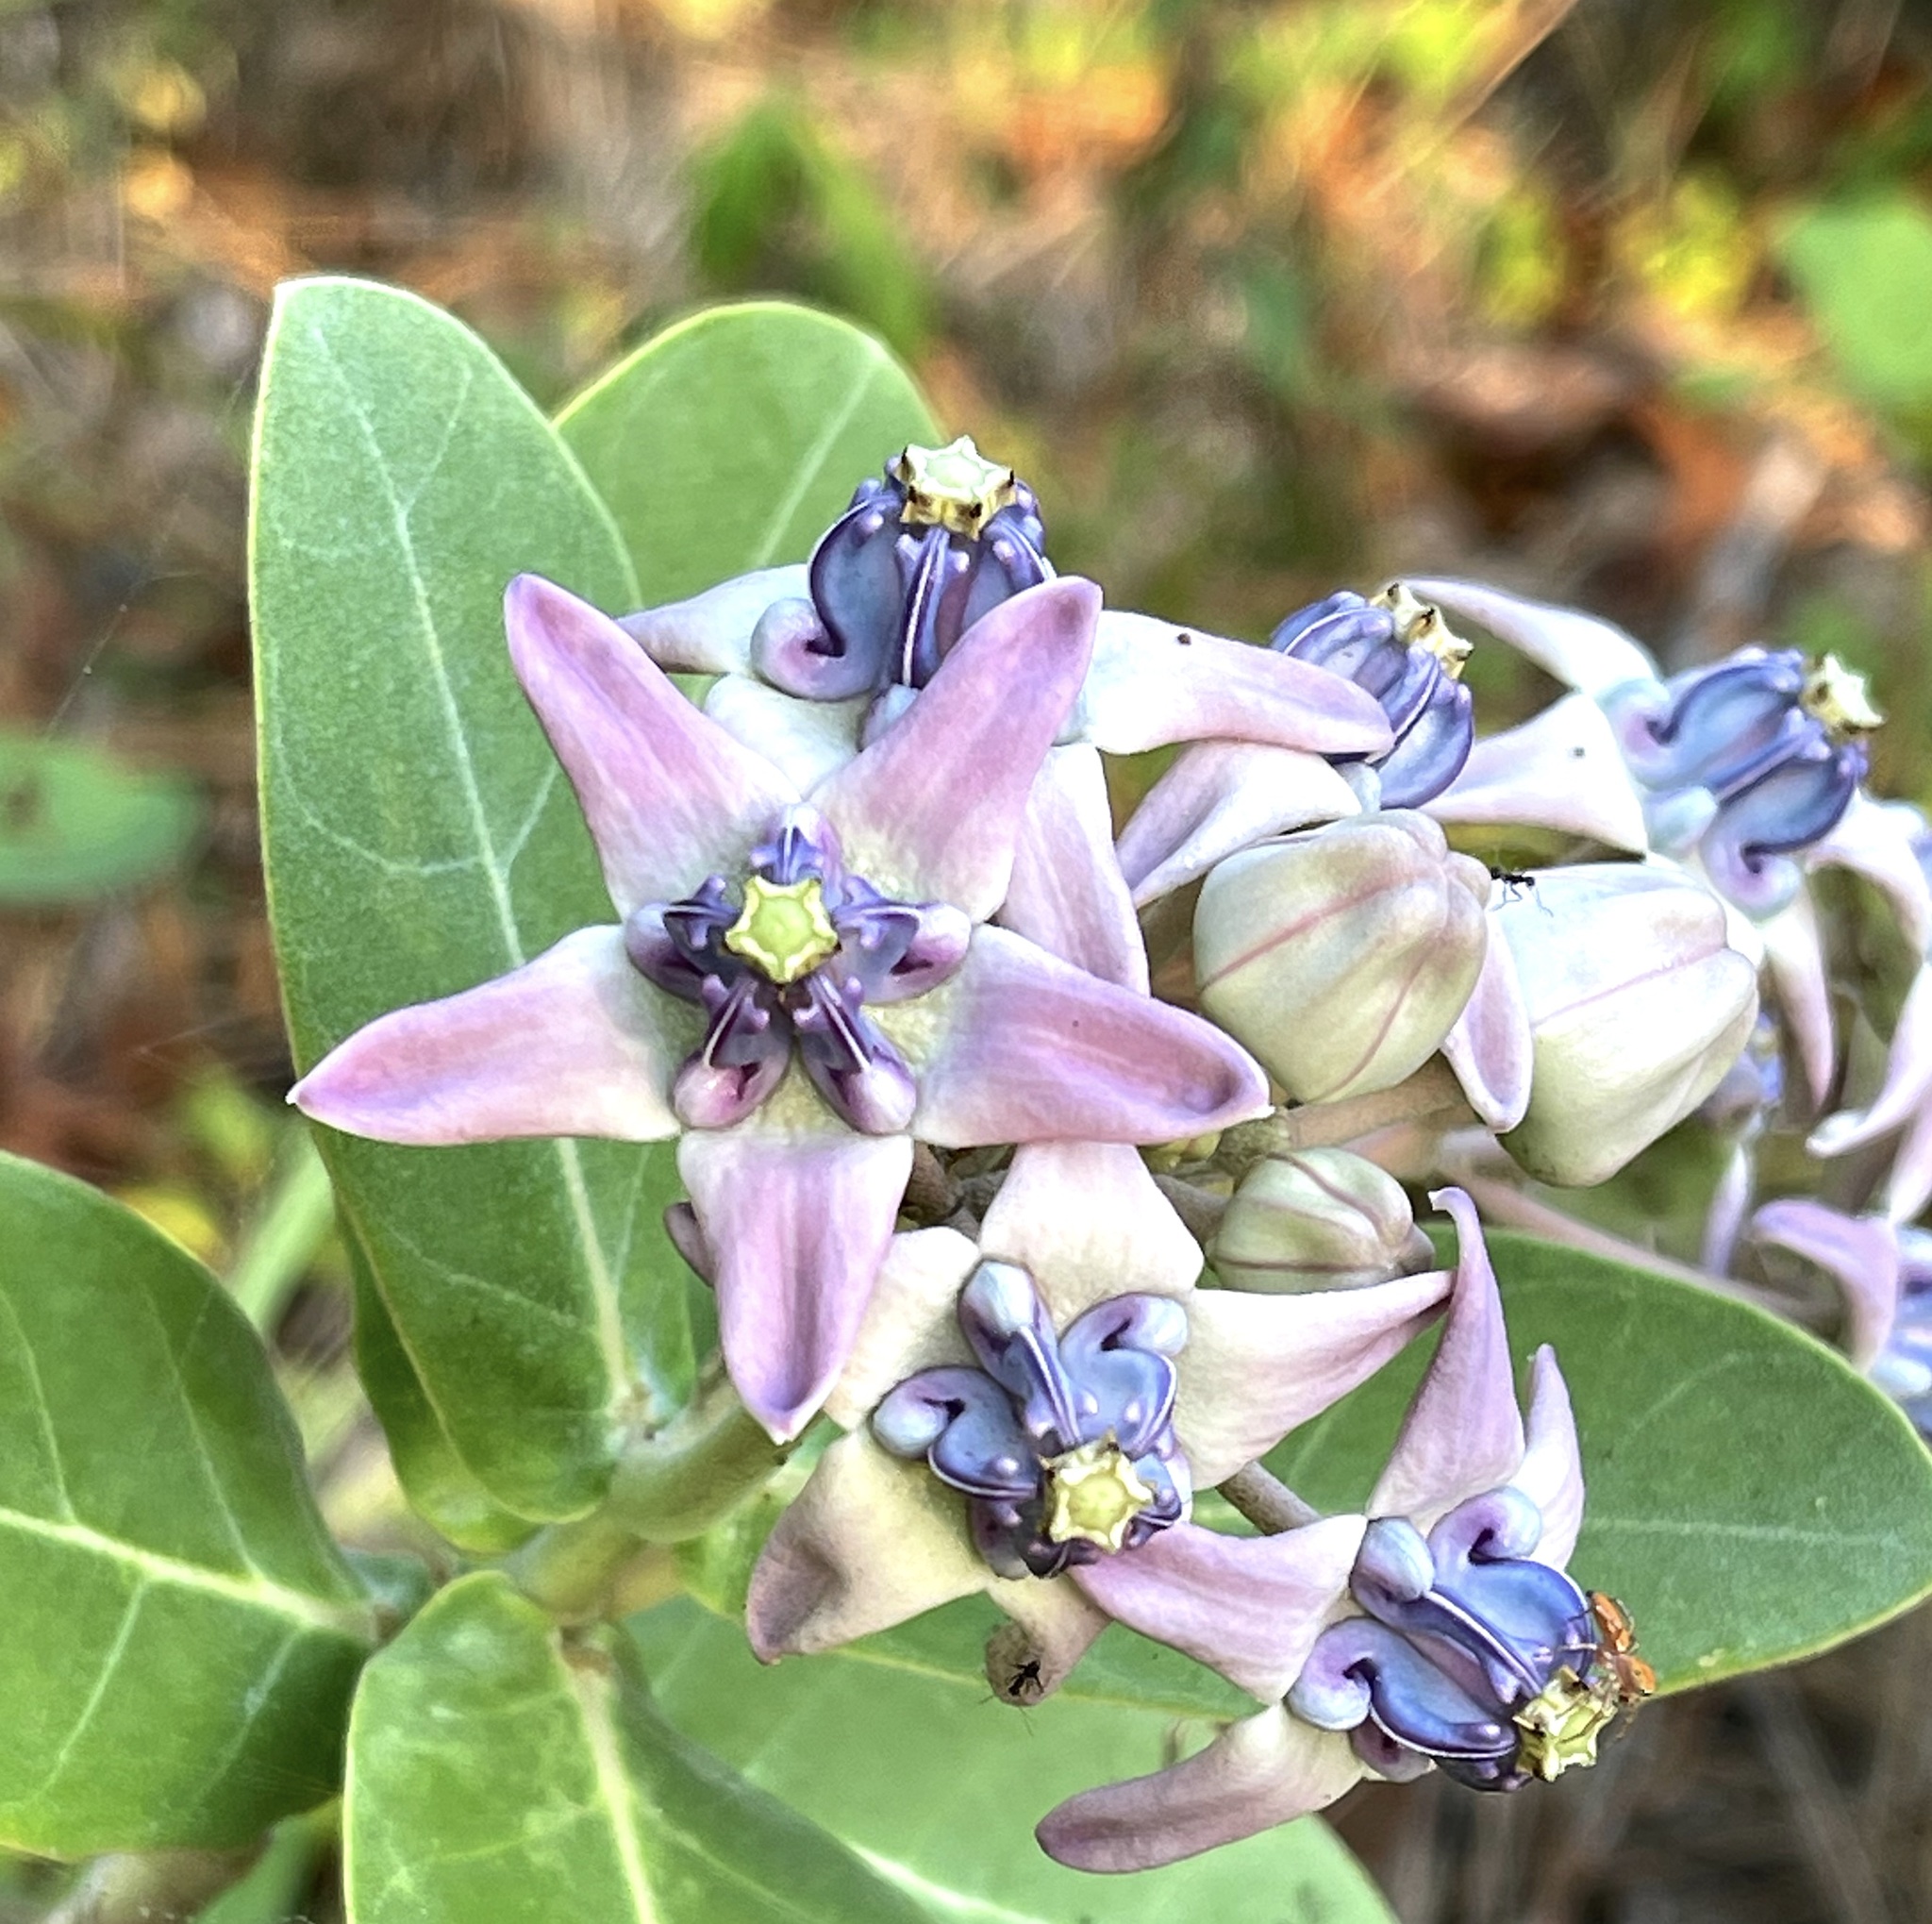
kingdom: Plantae
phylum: Tracheophyta
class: Magnoliopsida
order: Gentianales
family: Apocynaceae
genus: Calotropis
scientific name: Calotropis gigantea
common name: Crown flower
